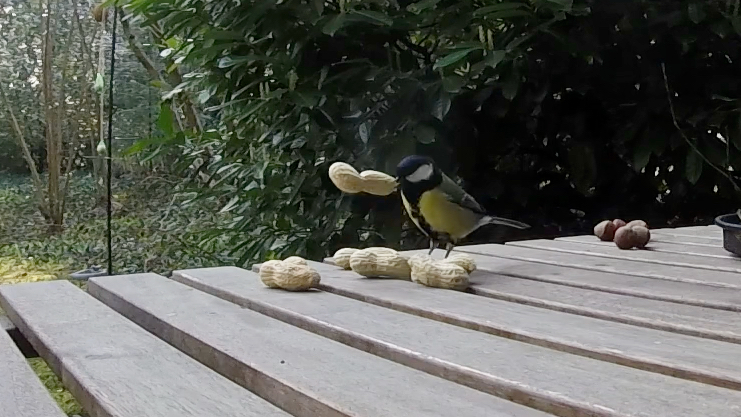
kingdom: Animalia
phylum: Chordata
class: Aves
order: Passeriformes
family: Paridae
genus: Parus
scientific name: Parus major
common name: Great tit
